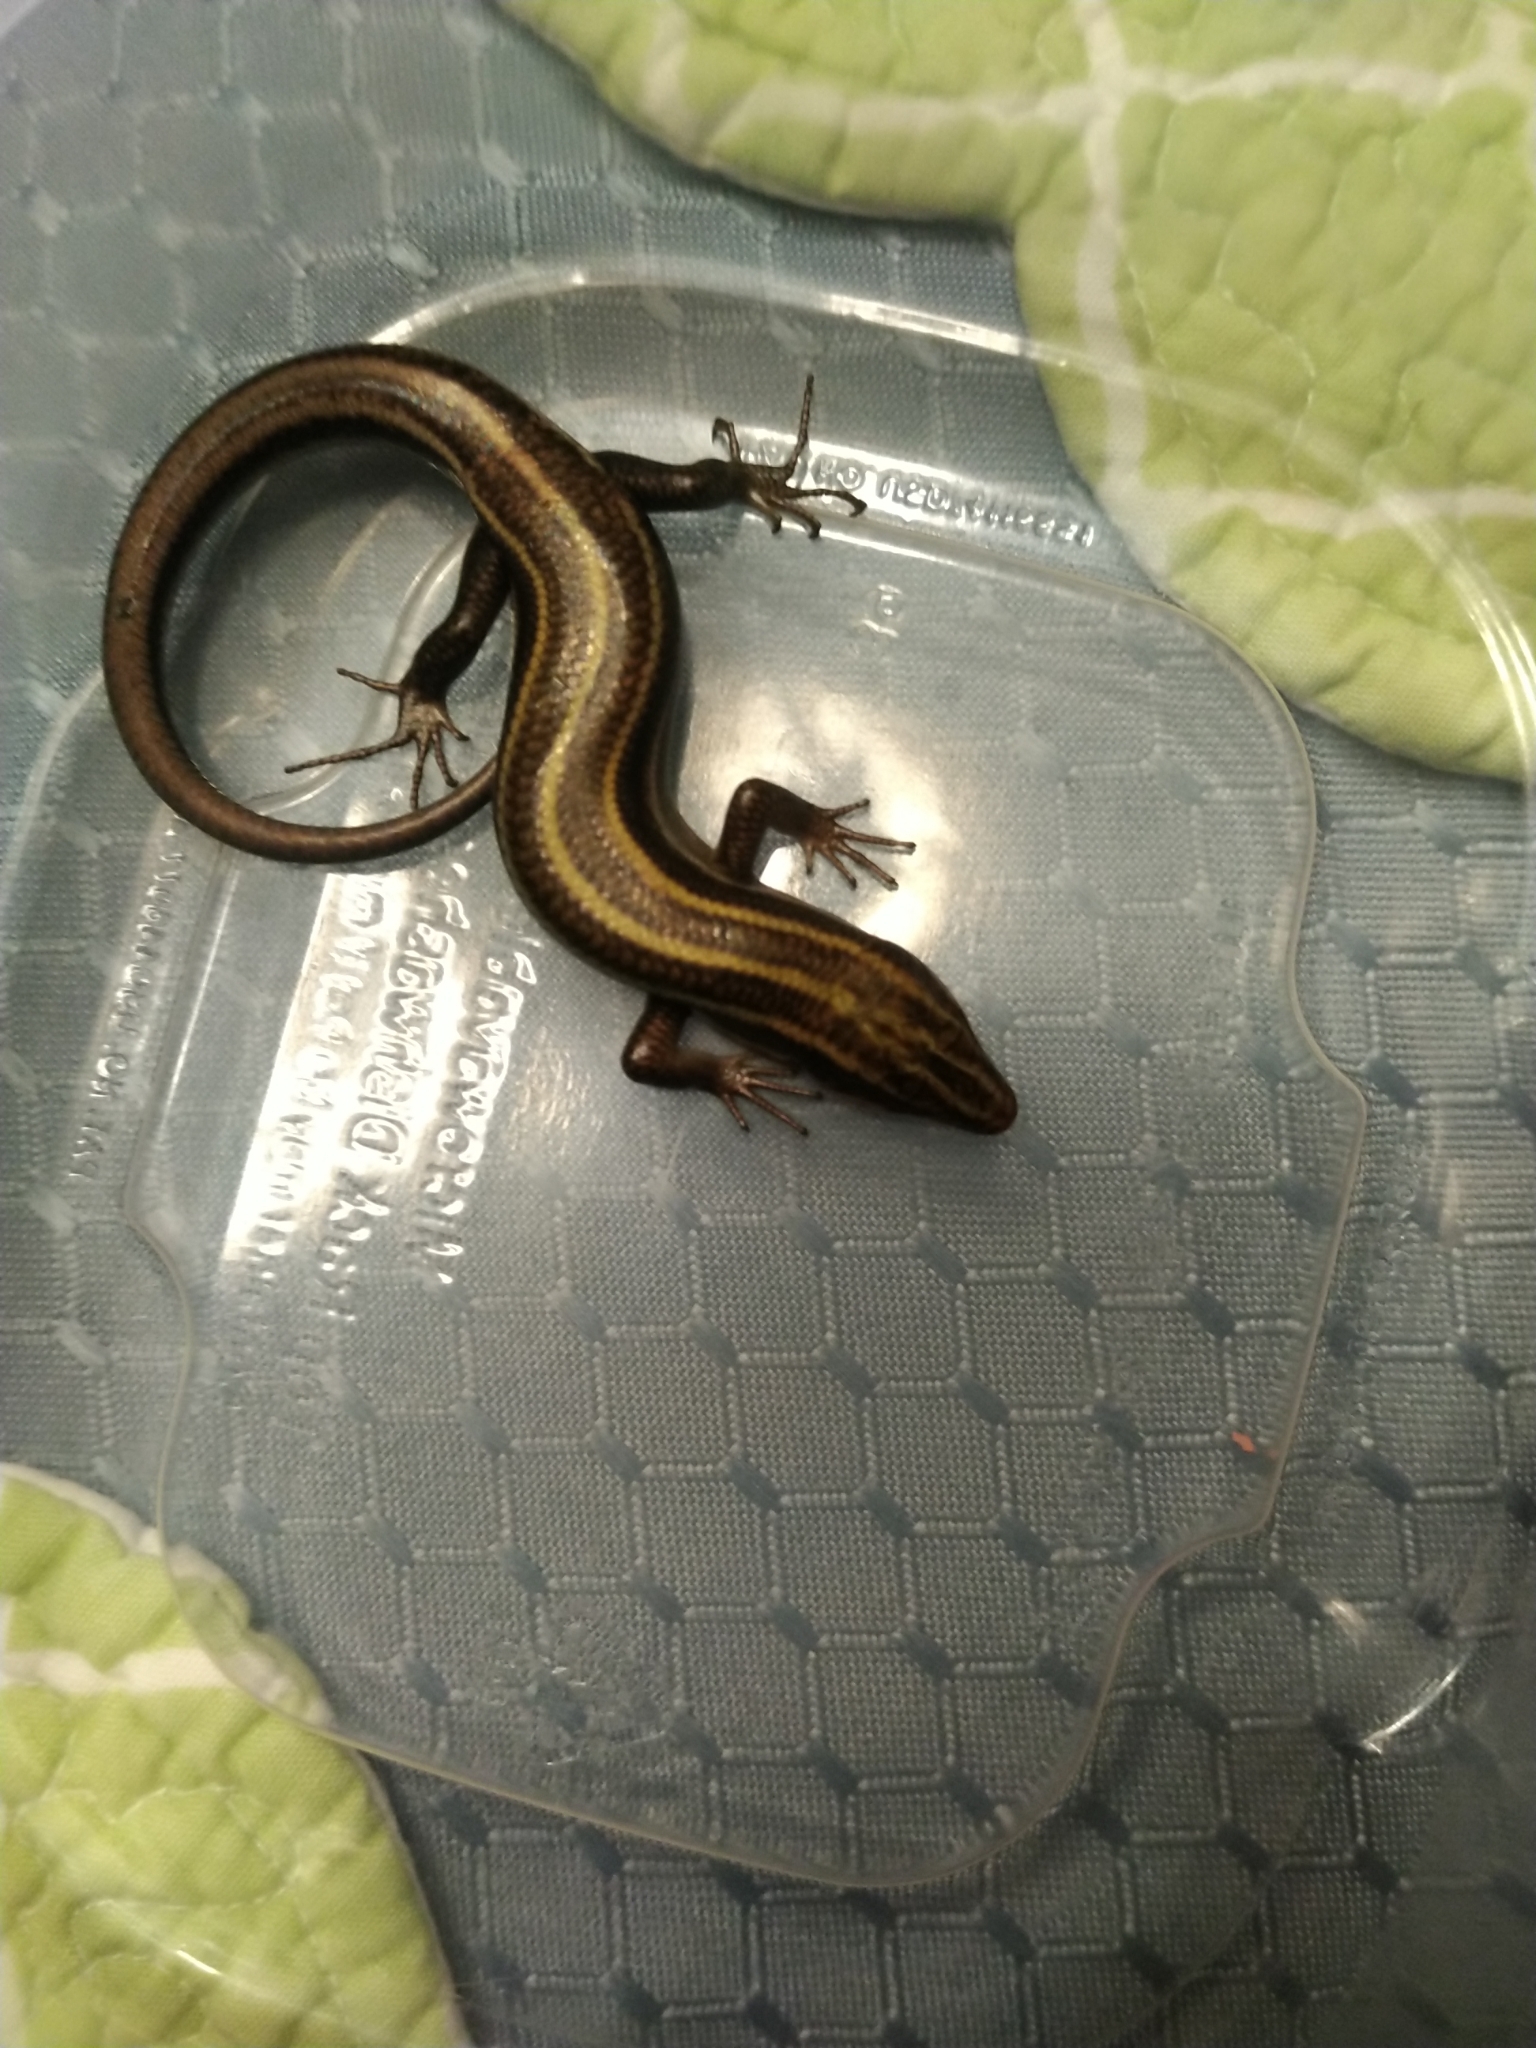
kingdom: Animalia
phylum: Chordata
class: Squamata
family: Scincidae
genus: Plestiodon
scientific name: Plestiodon fasciatus
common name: Five-lined skink
